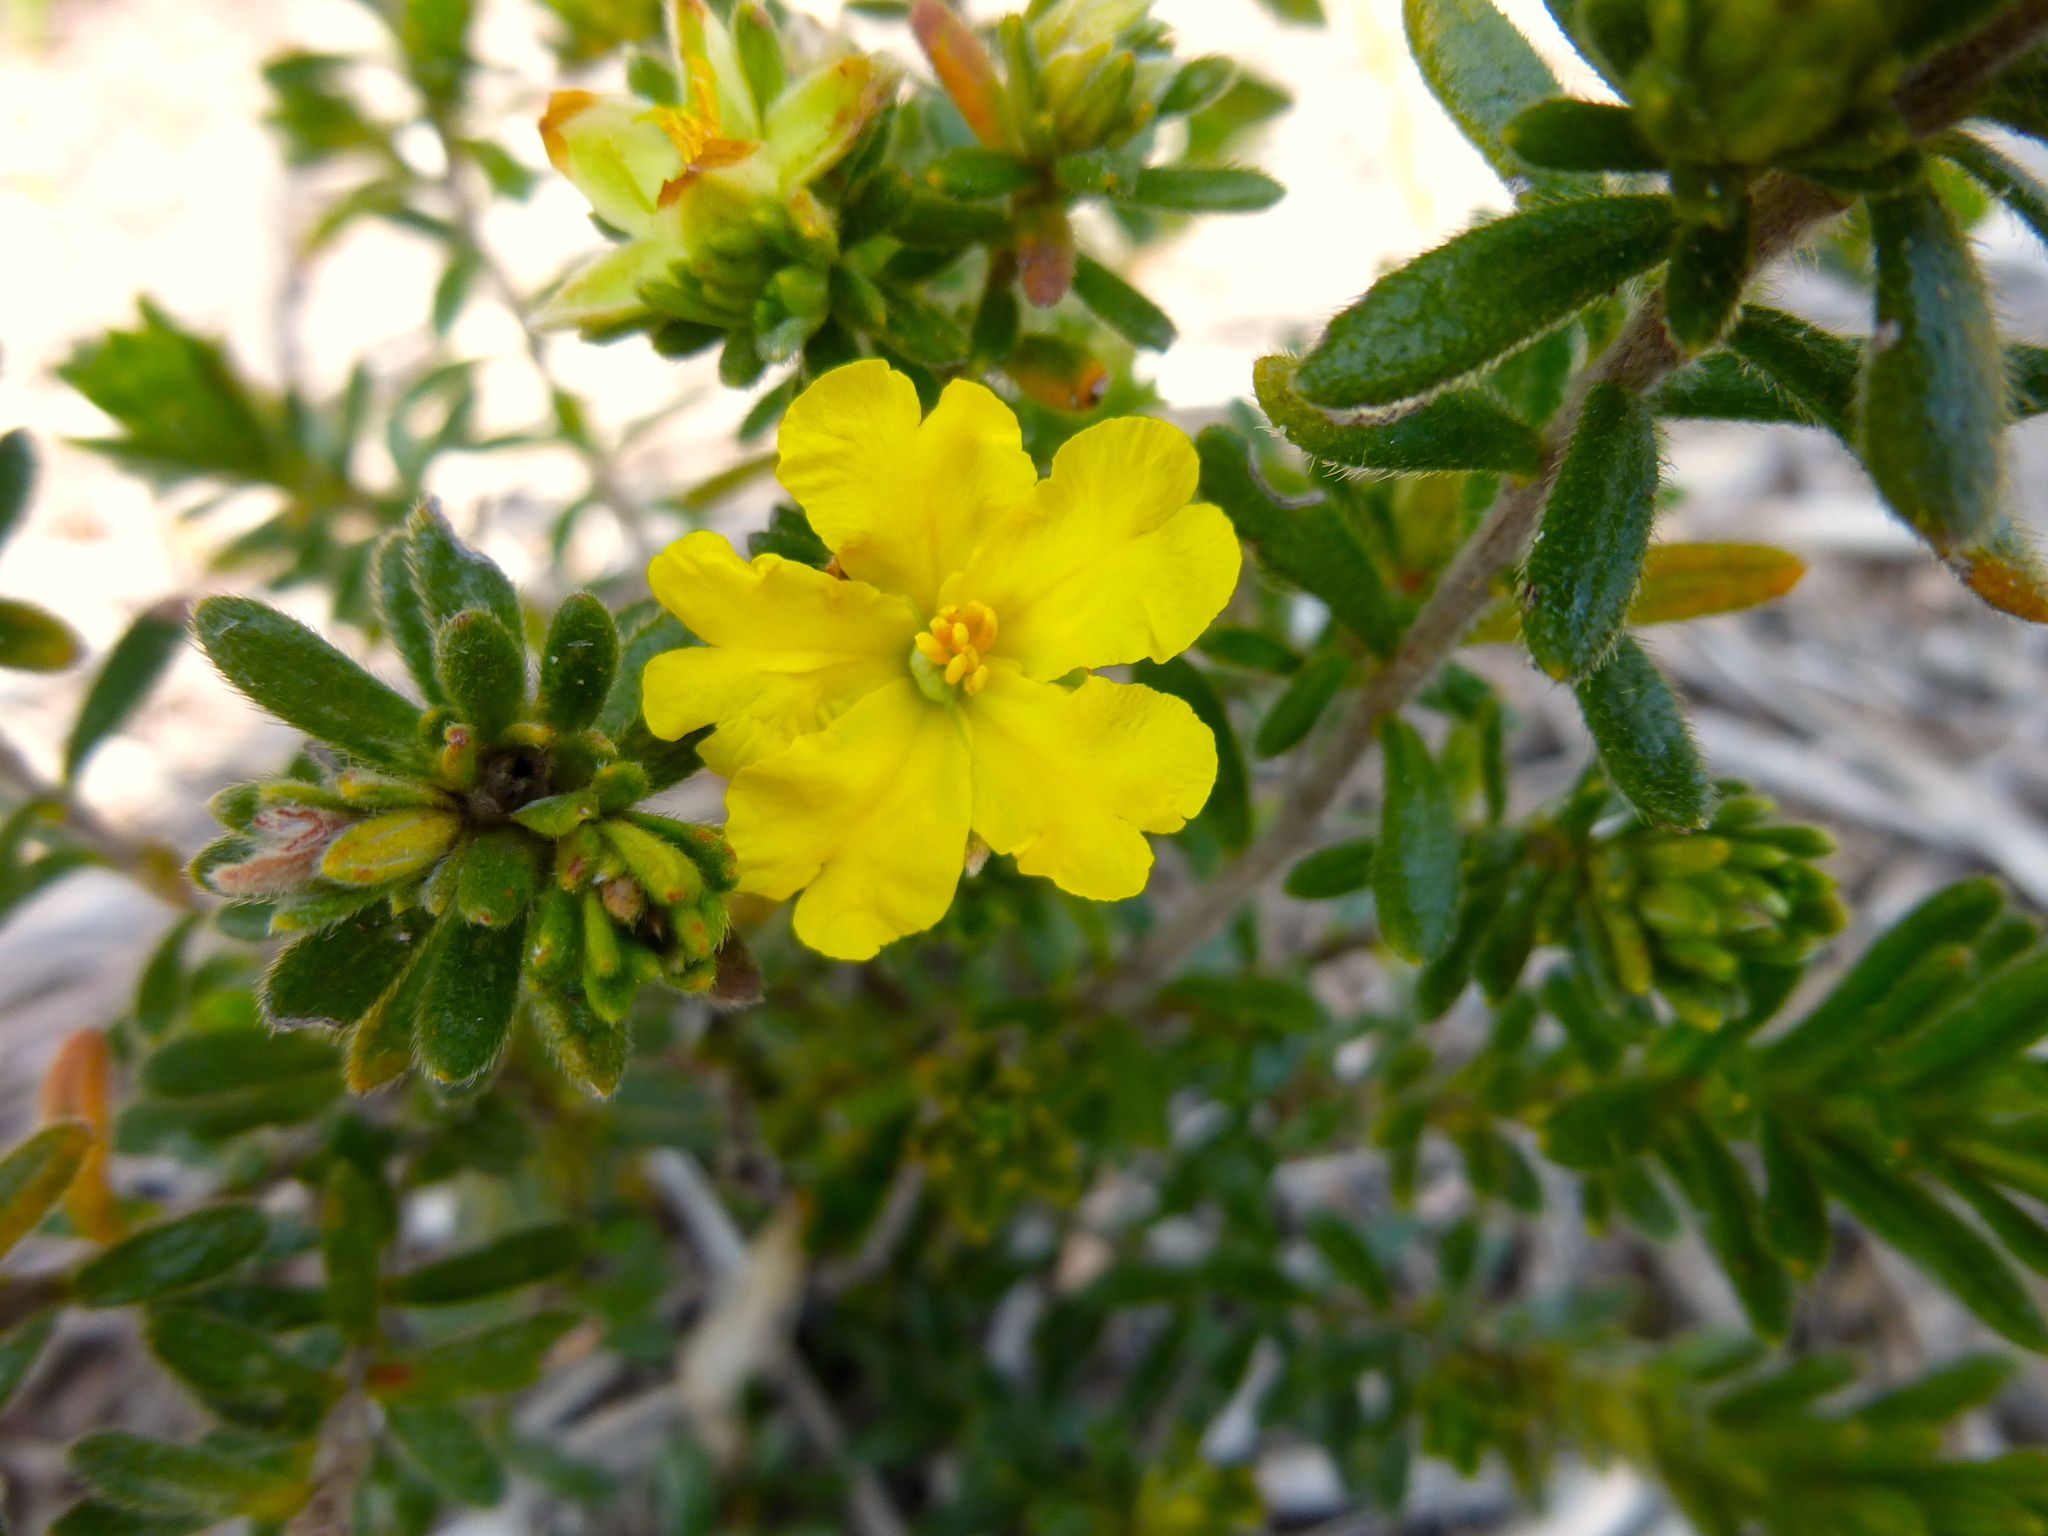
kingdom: Plantae
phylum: Tracheophyta
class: Magnoliopsida
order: Dilleniales
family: Dilleniaceae
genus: Hibbertia
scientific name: Hibbertia sericea
